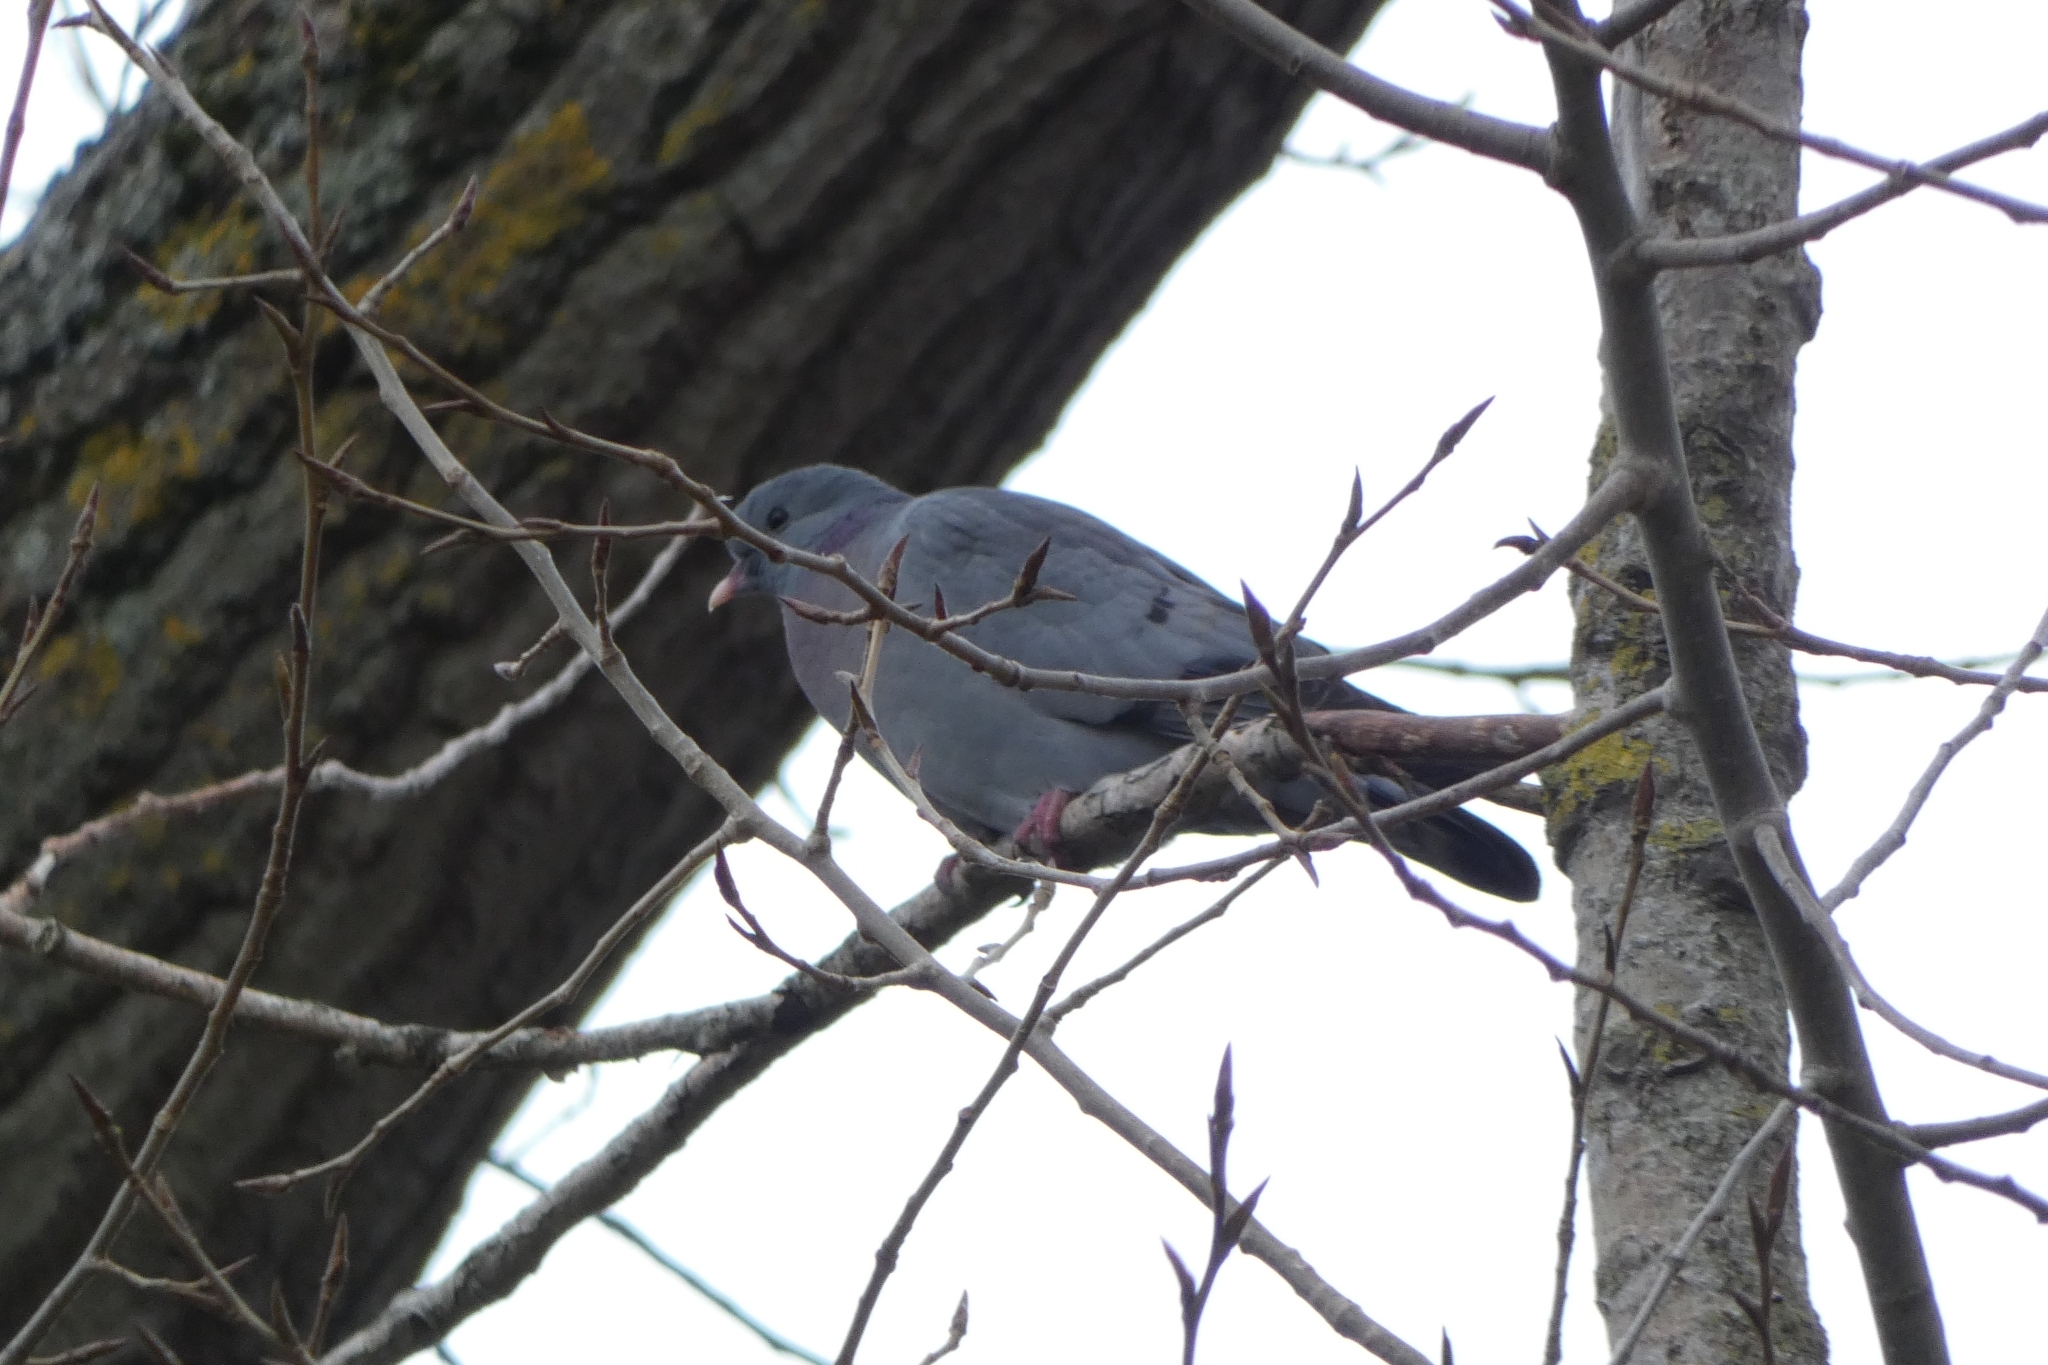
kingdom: Animalia
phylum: Chordata
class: Aves
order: Columbiformes
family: Columbidae
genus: Columba
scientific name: Columba oenas
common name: Stock dove
